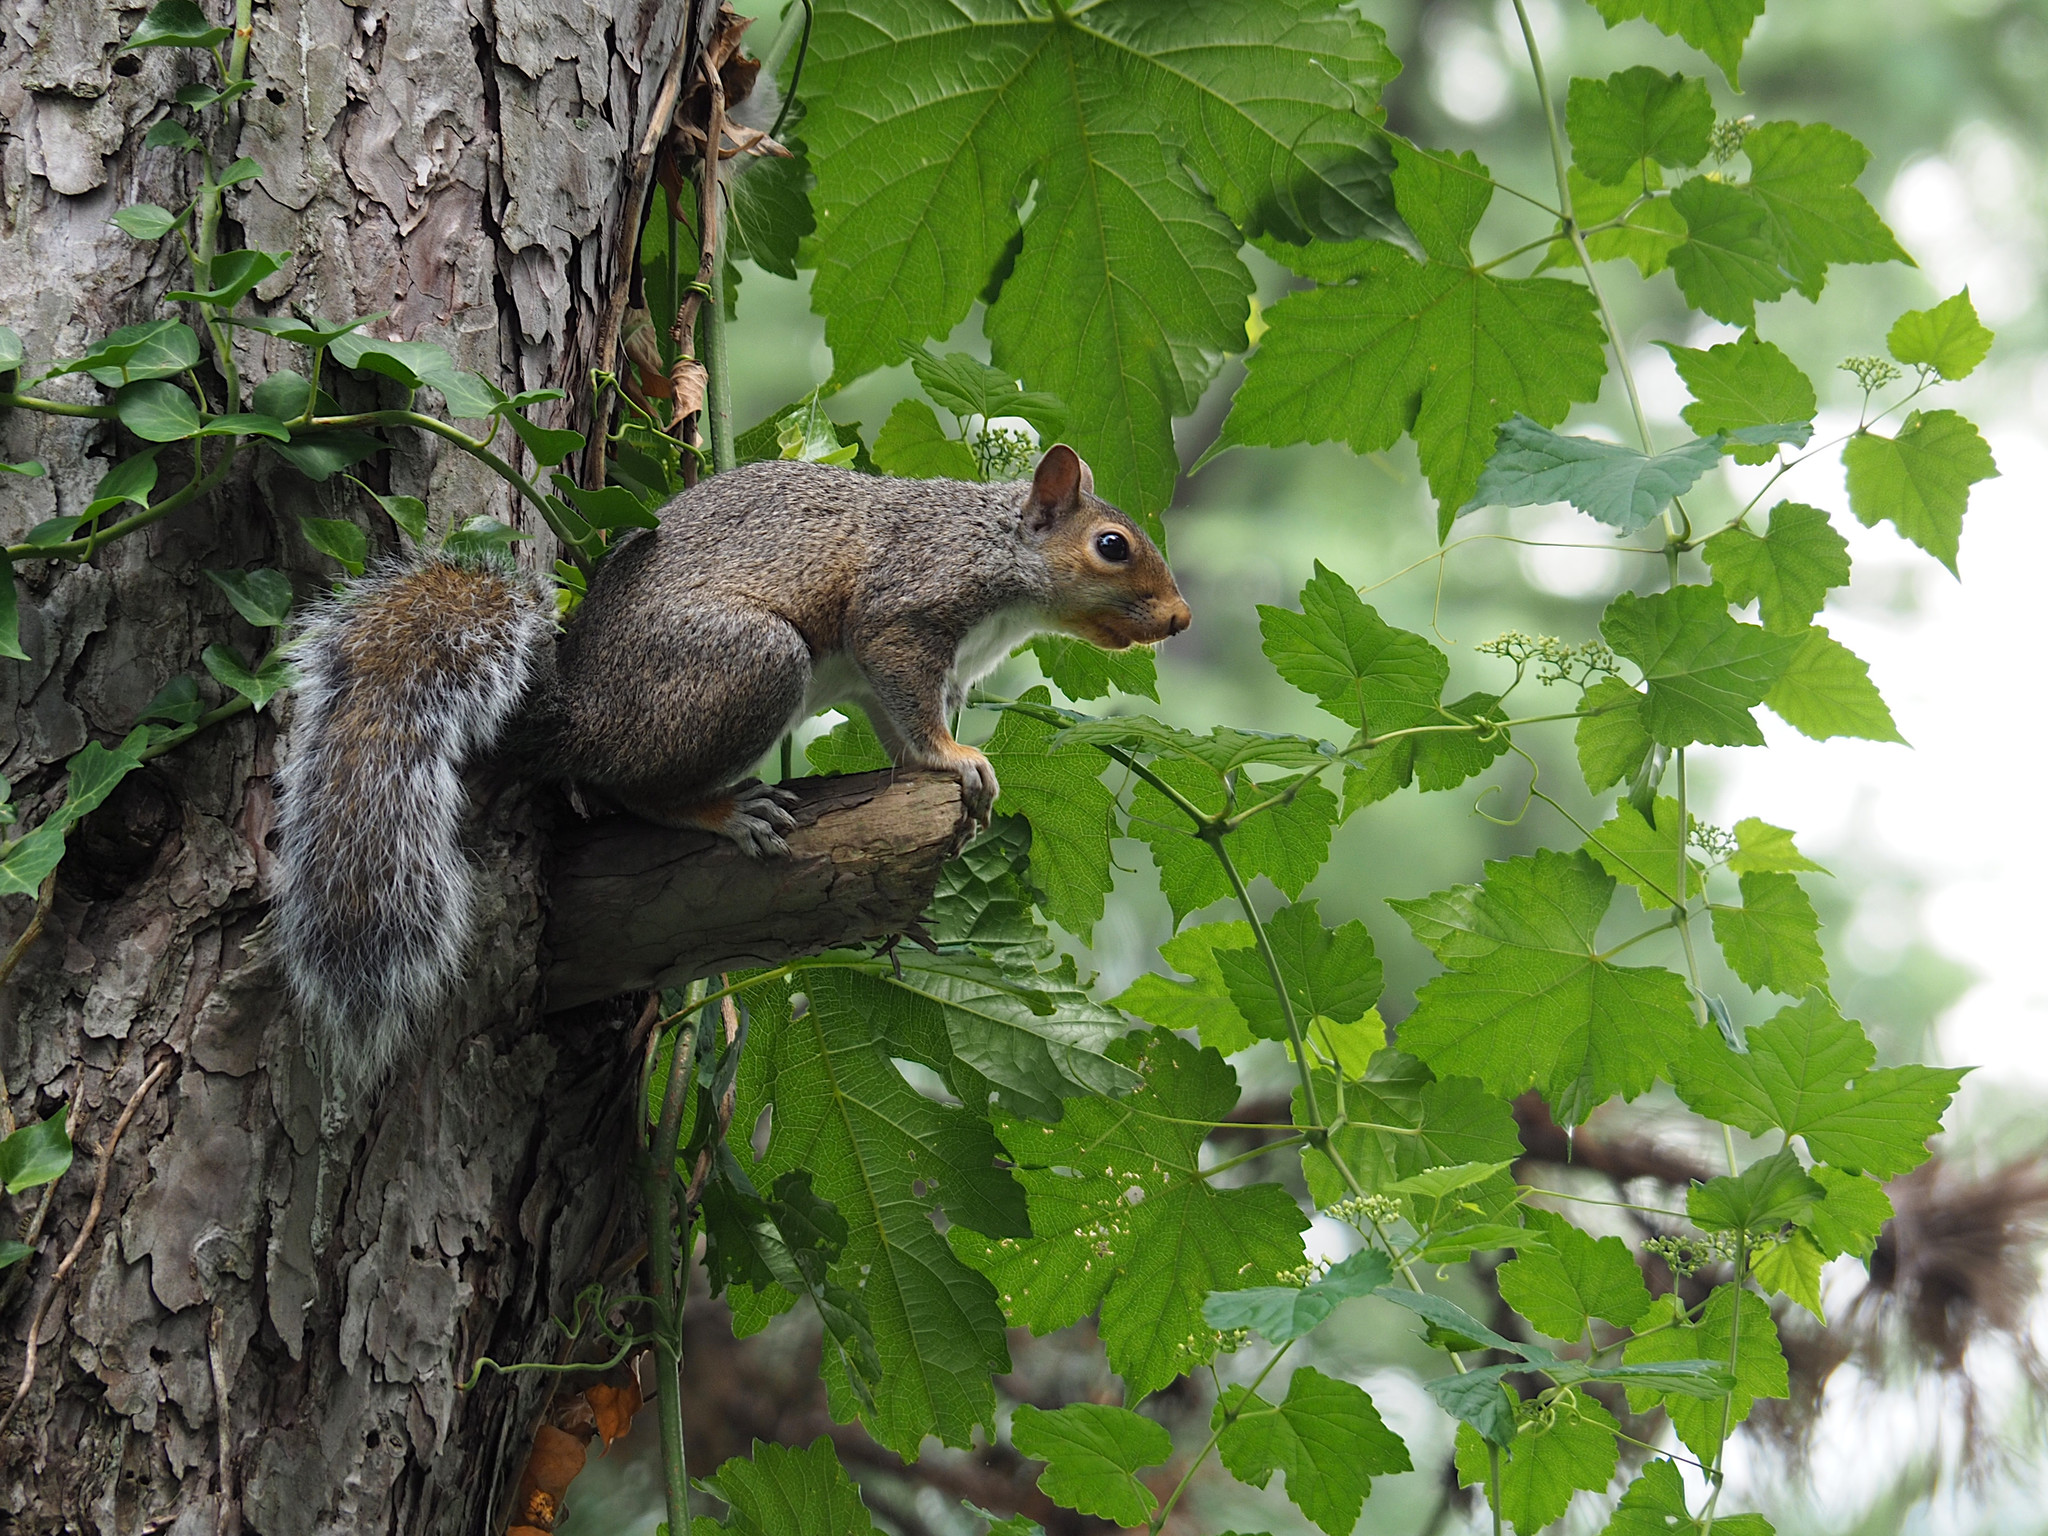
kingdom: Animalia
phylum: Chordata
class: Mammalia
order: Rodentia
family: Sciuridae
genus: Sciurus
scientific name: Sciurus carolinensis
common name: Eastern gray squirrel
